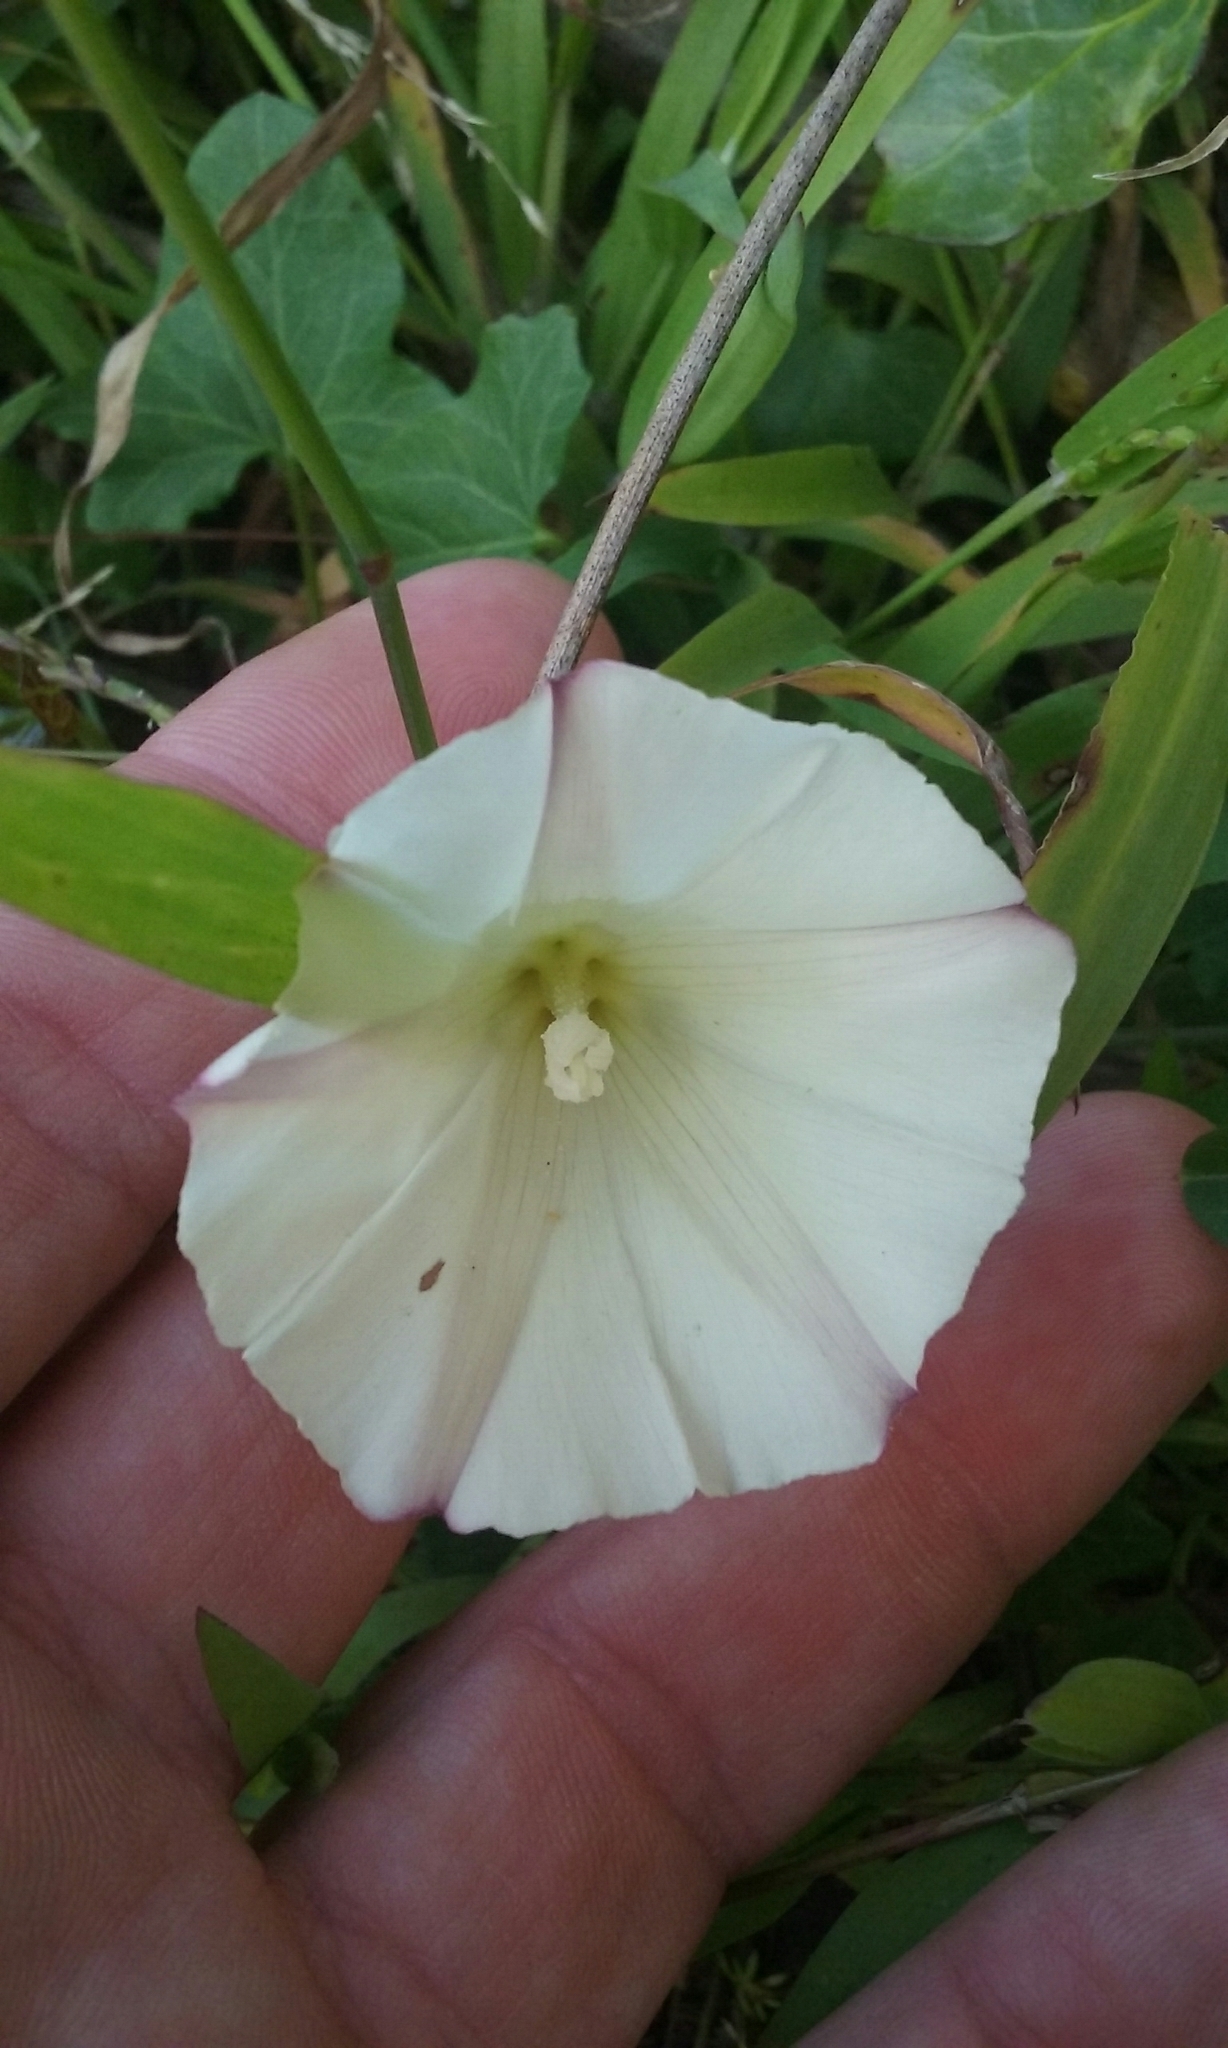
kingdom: Plantae
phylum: Tracheophyta
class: Magnoliopsida
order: Solanales
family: Convolvulaceae
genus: Calystegia
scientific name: Calystegia purpurata
